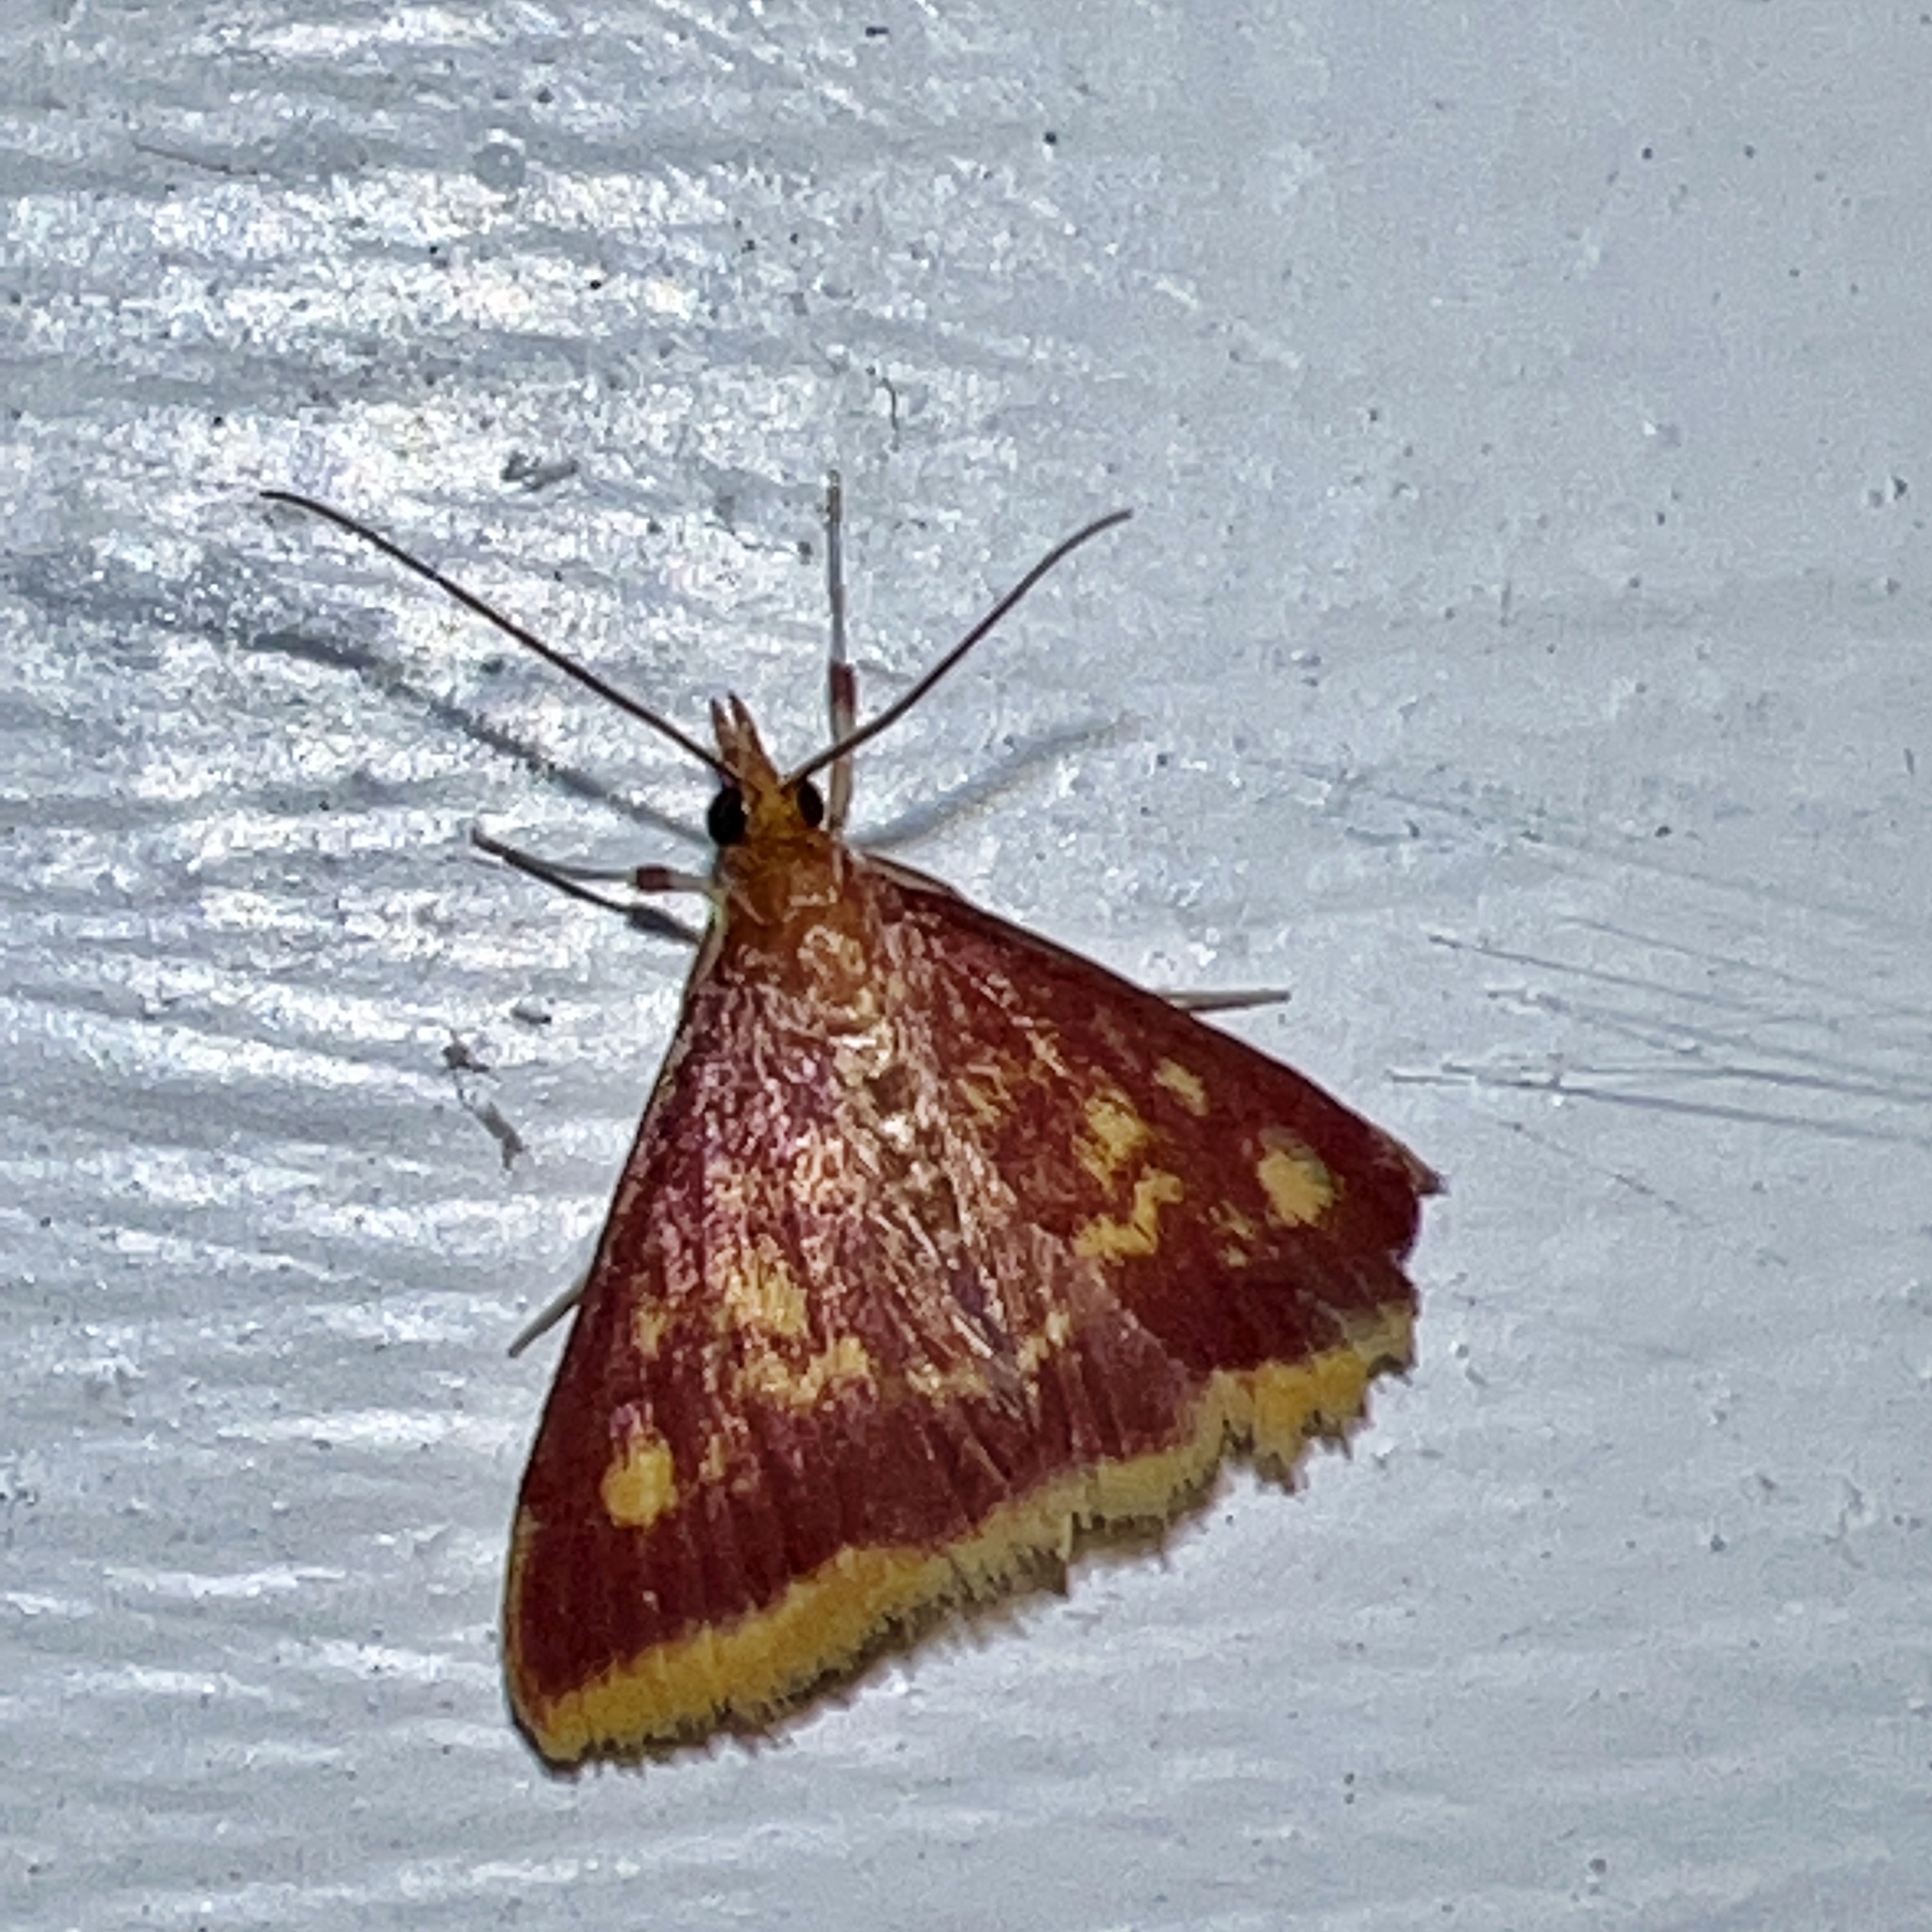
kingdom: Animalia
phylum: Arthropoda
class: Insecta
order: Lepidoptera
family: Crambidae
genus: Pyrausta
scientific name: Pyrausta acrionalis
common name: Mint-loving pyrausta moth
